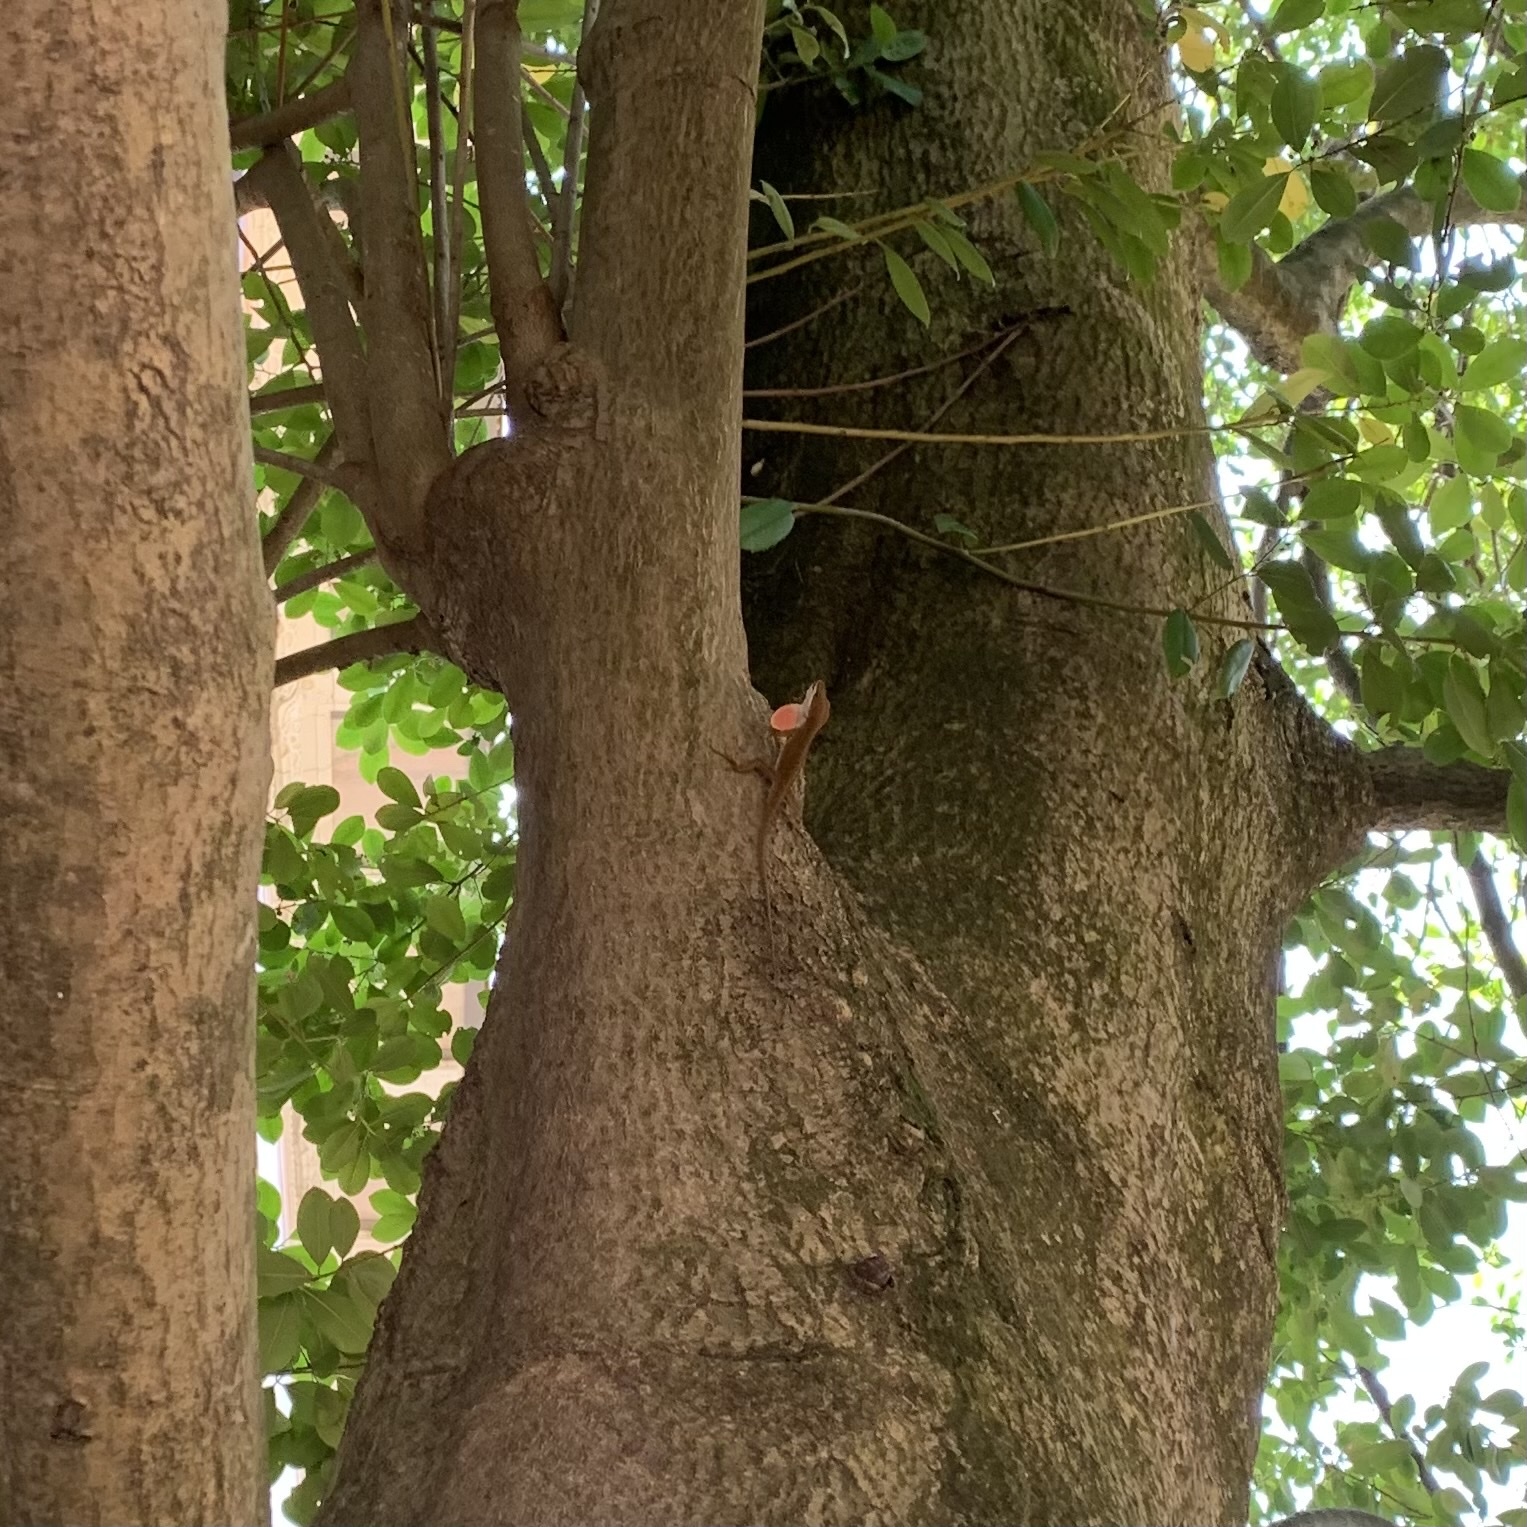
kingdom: Animalia
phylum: Chordata
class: Squamata
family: Dactyloidae
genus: Anolis
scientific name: Anolis carolinensis
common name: Green anole
